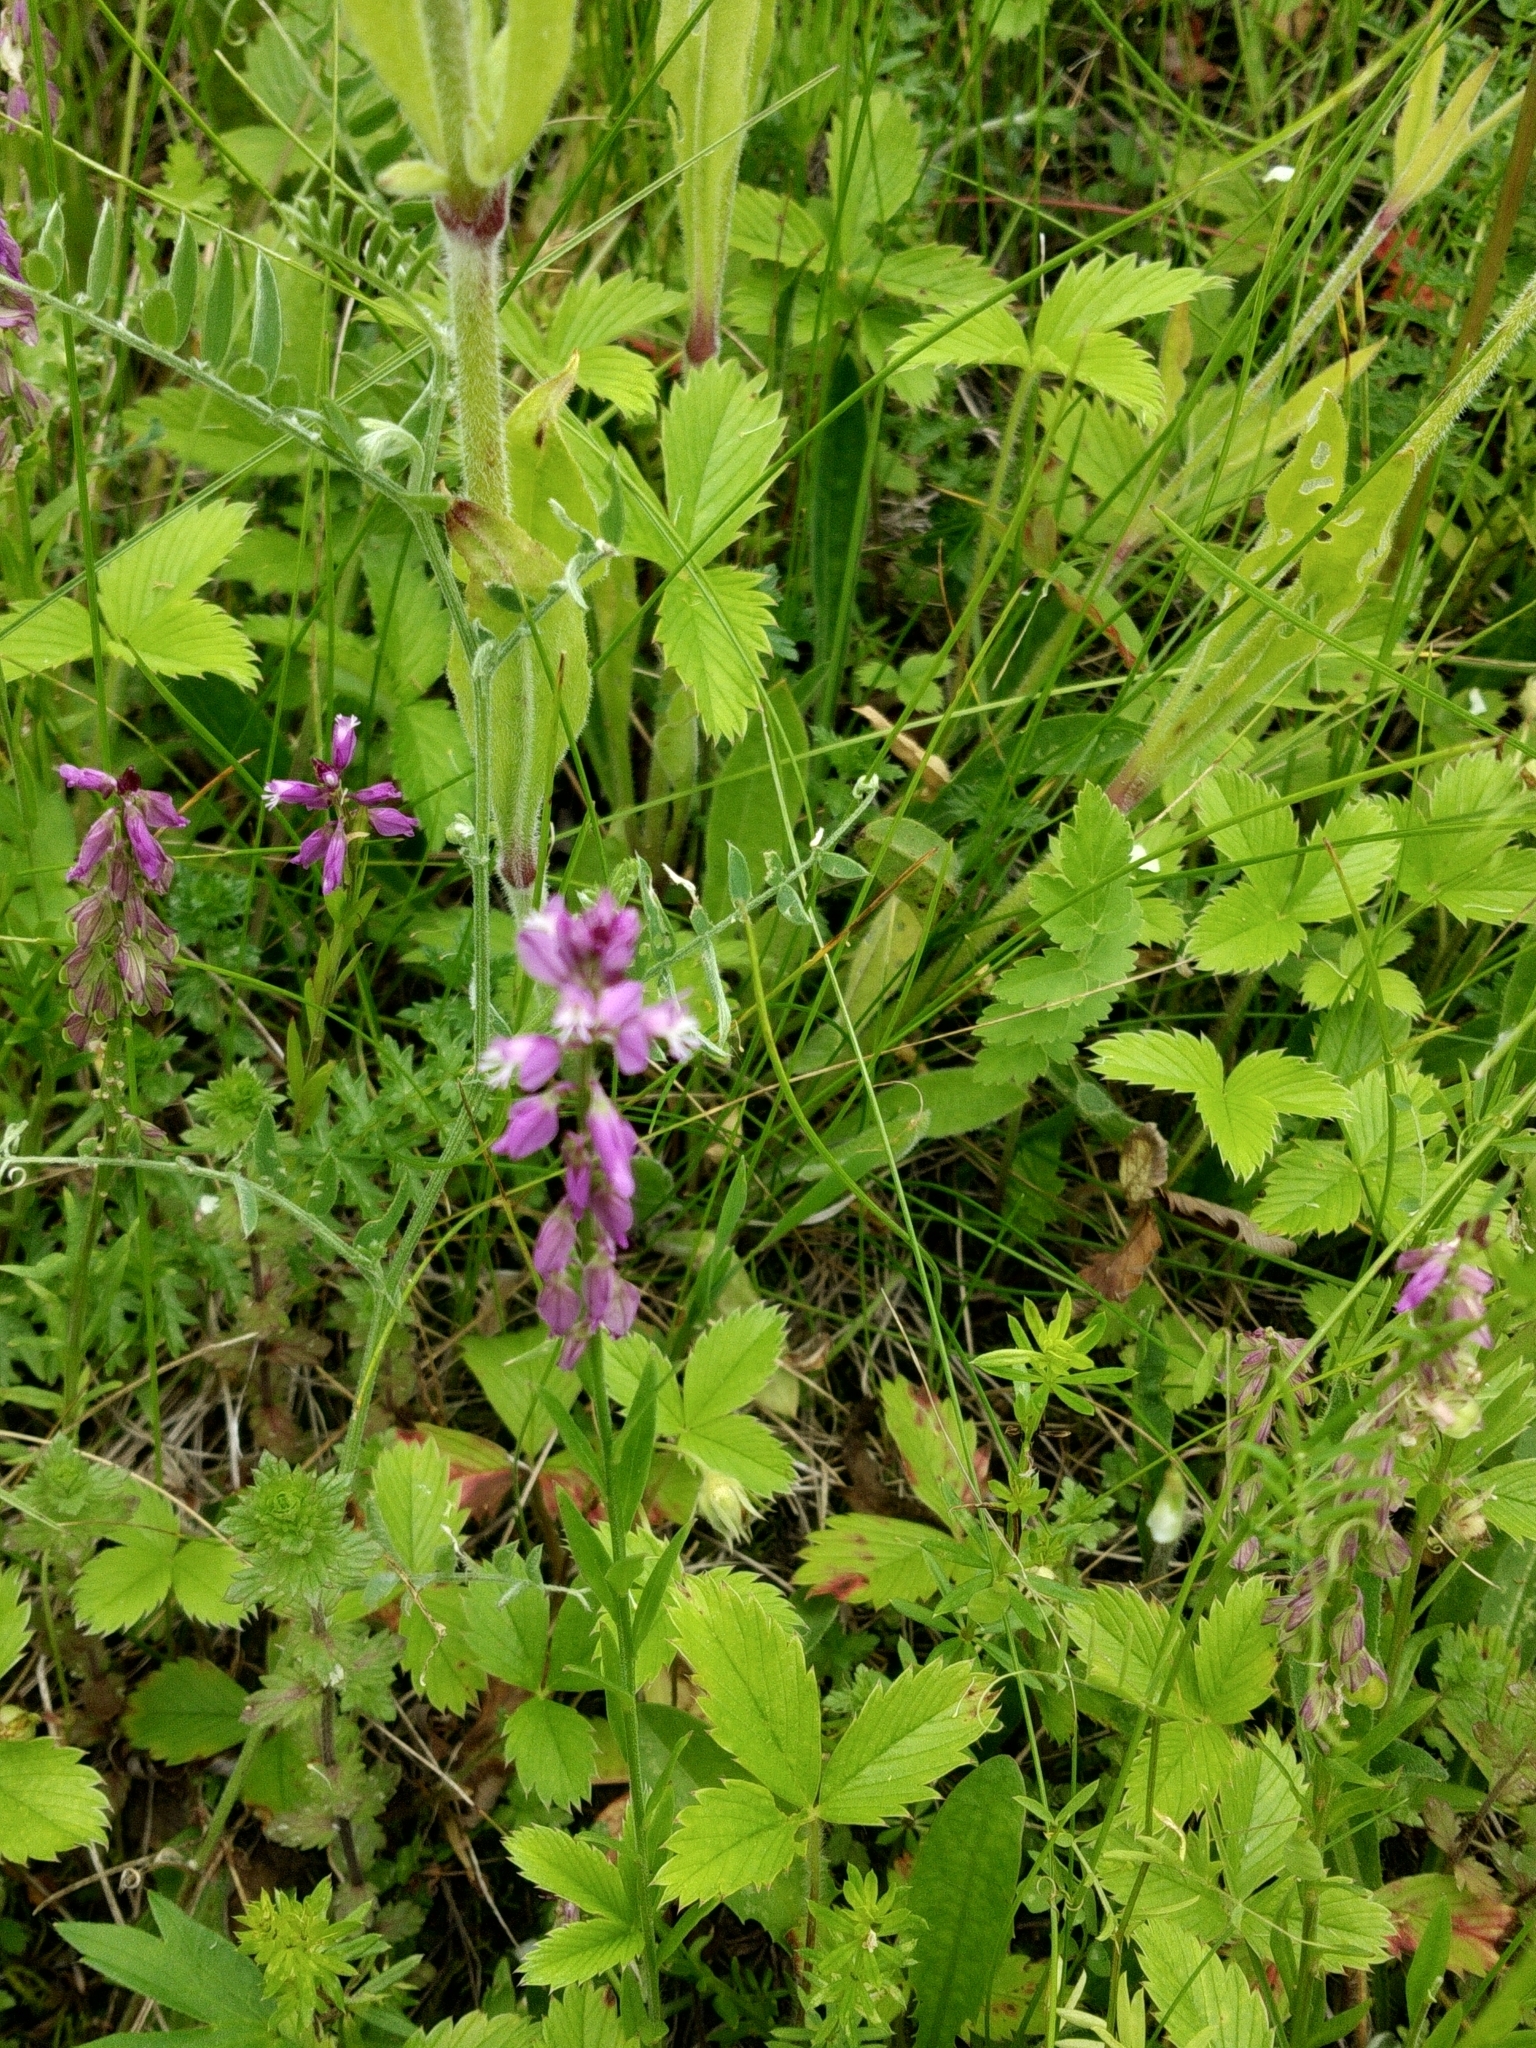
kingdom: Plantae
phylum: Tracheophyta
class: Magnoliopsida
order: Fabales
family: Polygalaceae
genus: Polygala
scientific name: Polygala comosa
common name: Tufted milkwort
